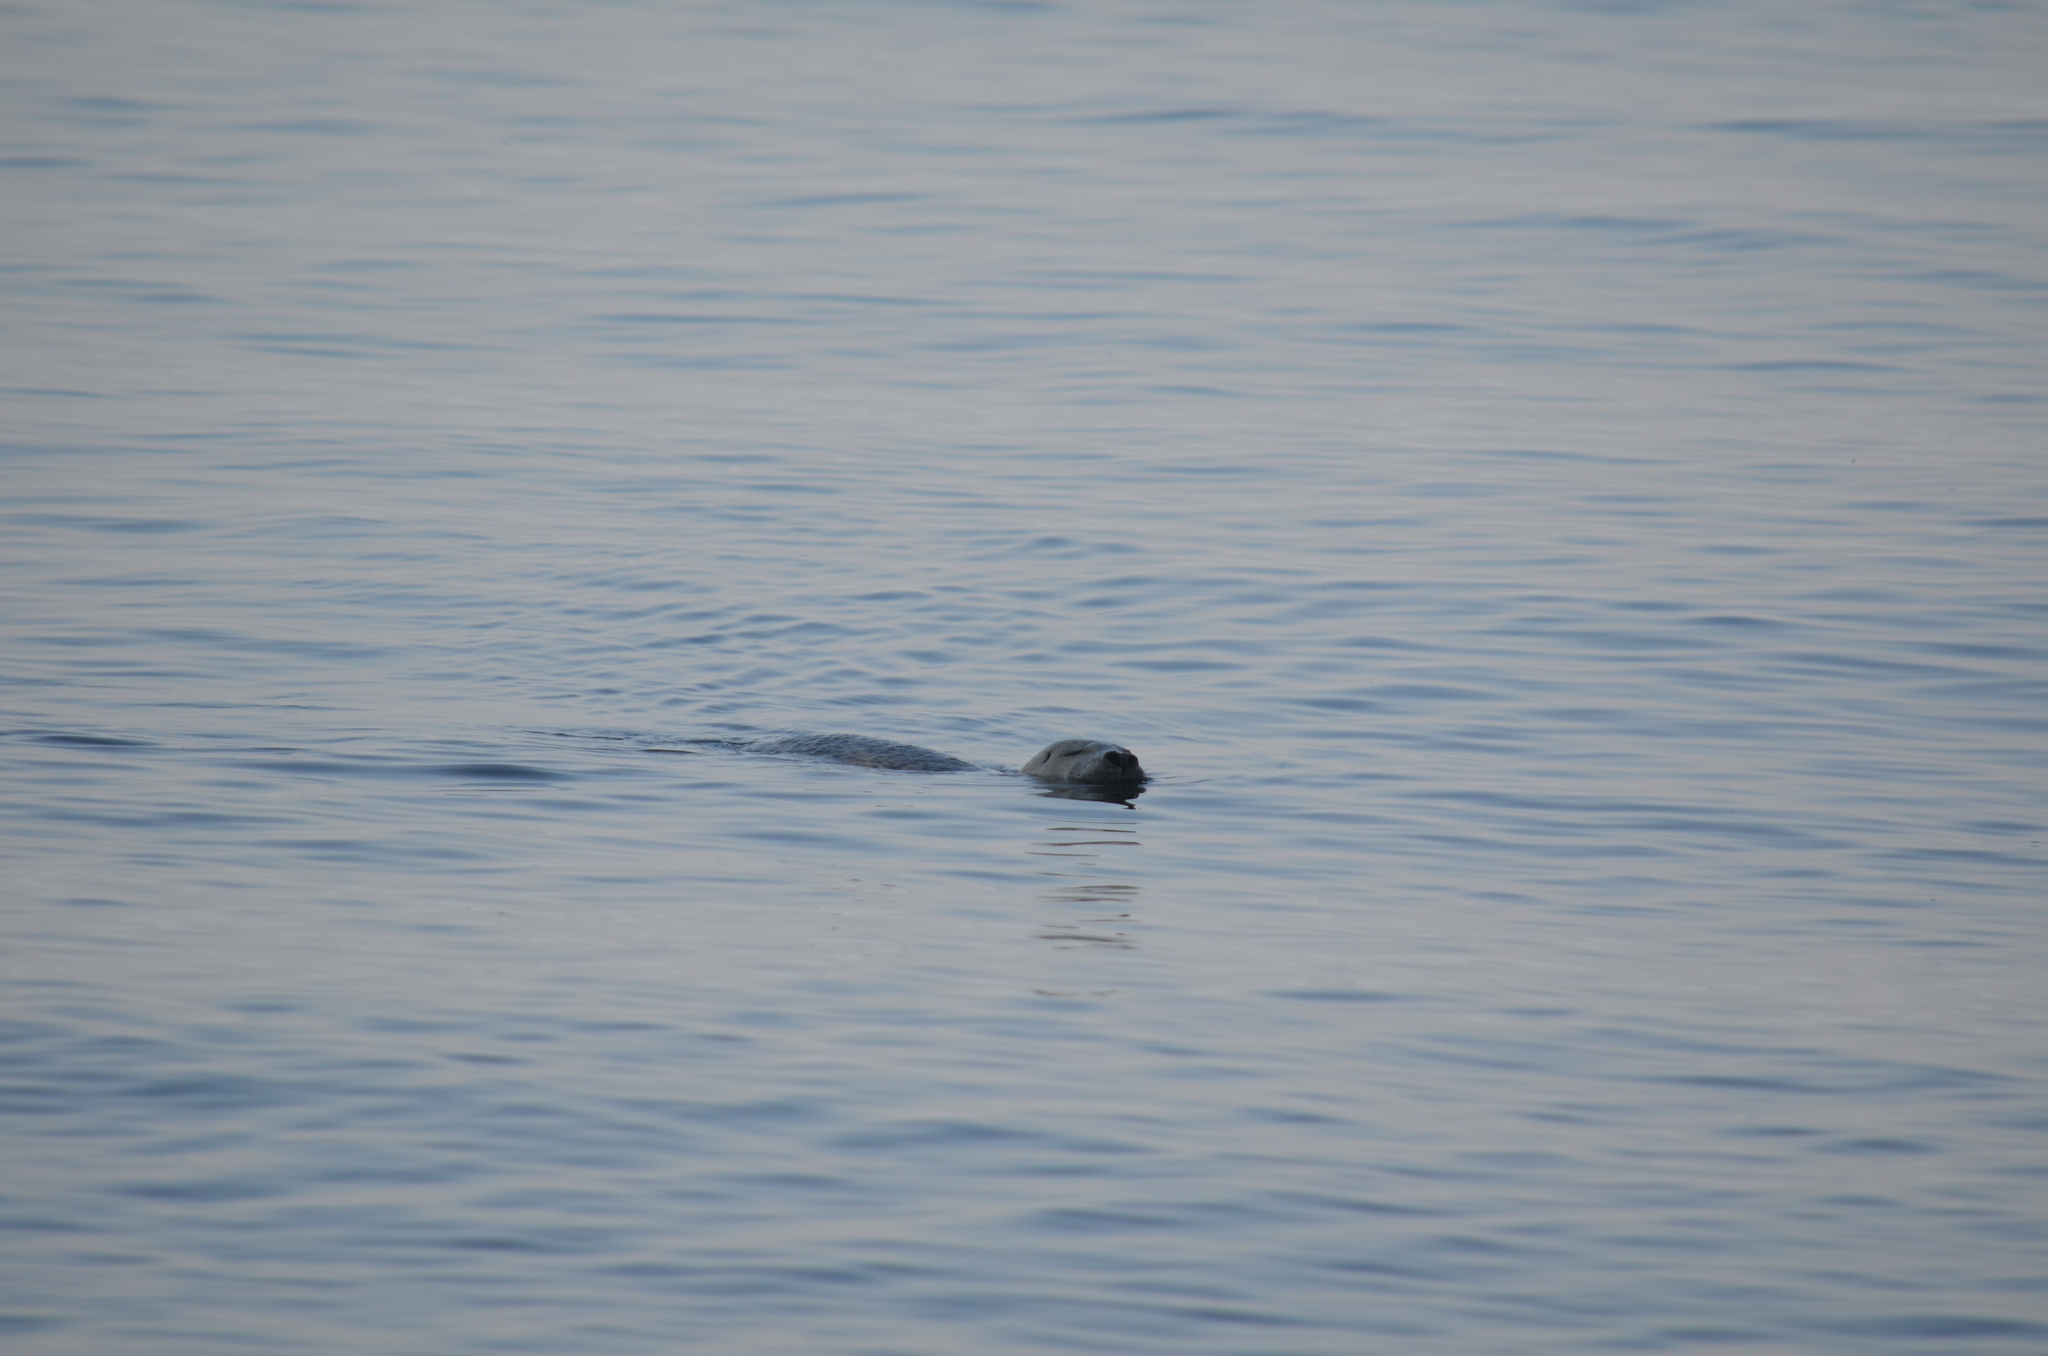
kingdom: Animalia
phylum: Chordata
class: Mammalia
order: Carnivora
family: Phocidae
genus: Phoca
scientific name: Phoca vitulina
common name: Harbor seal
